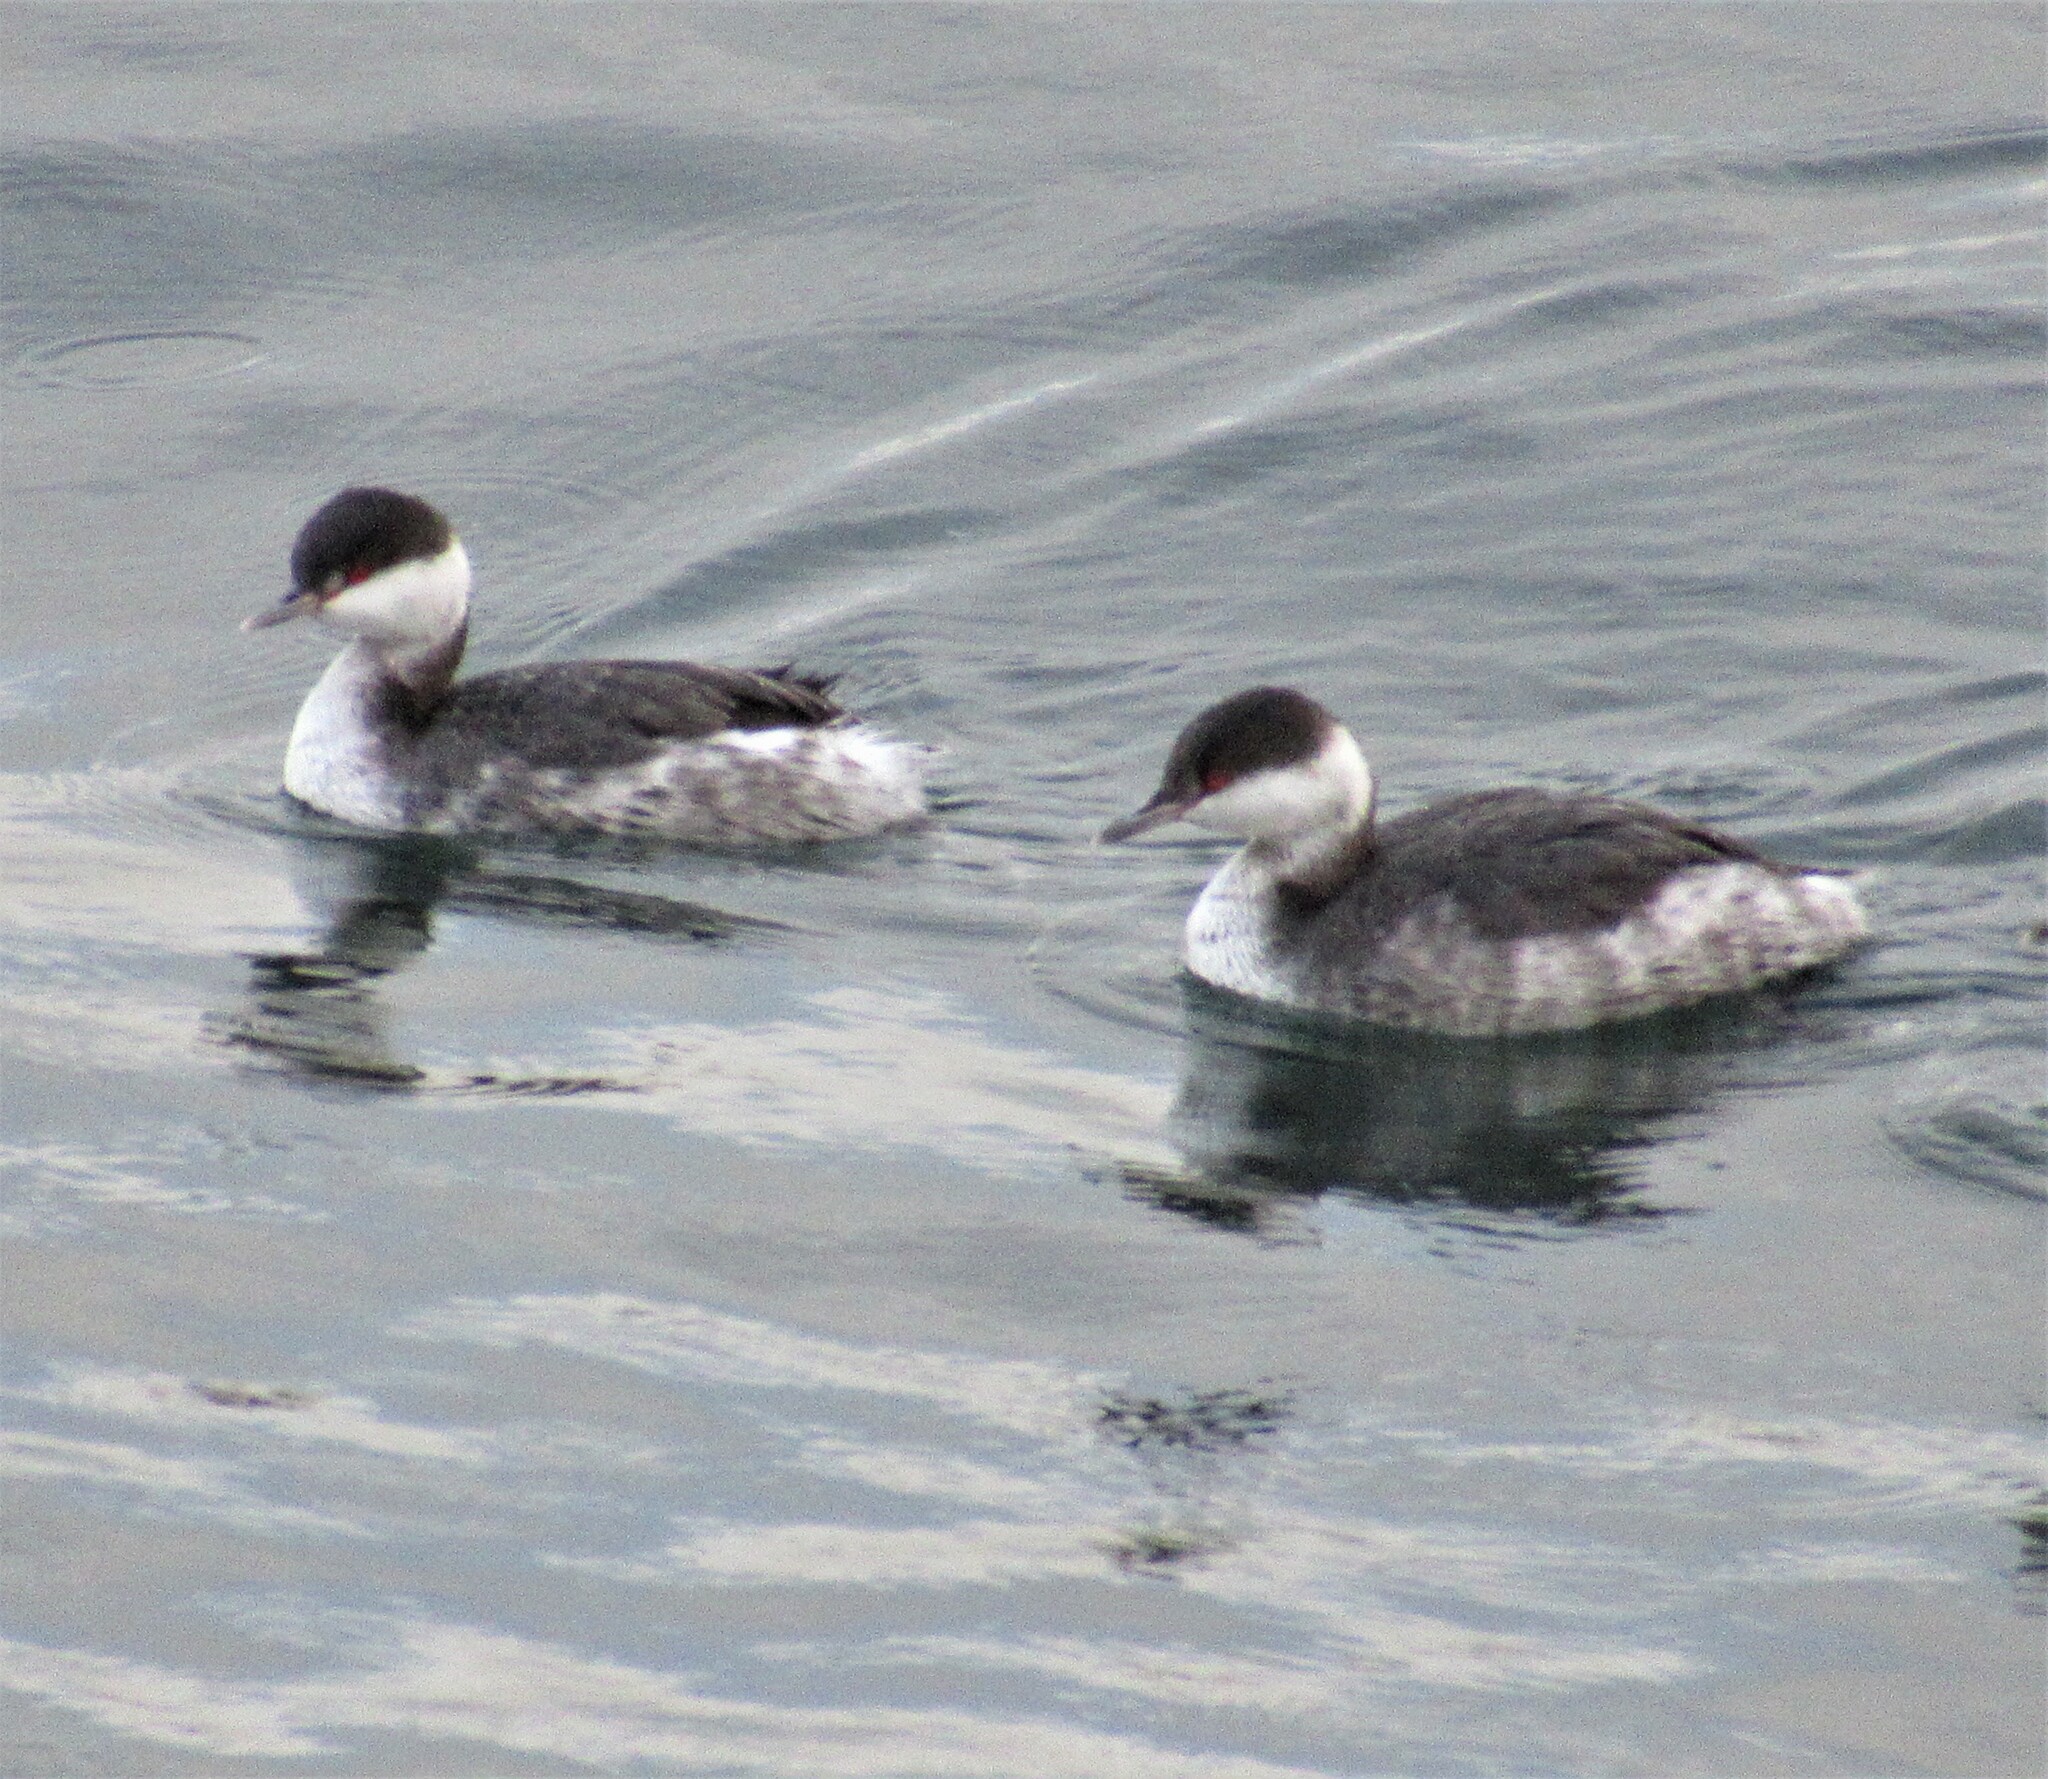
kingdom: Animalia
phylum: Chordata
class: Aves
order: Podicipediformes
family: Podicipedidae
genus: Podiceps
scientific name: Podiceps auritus
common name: Horned grebe
